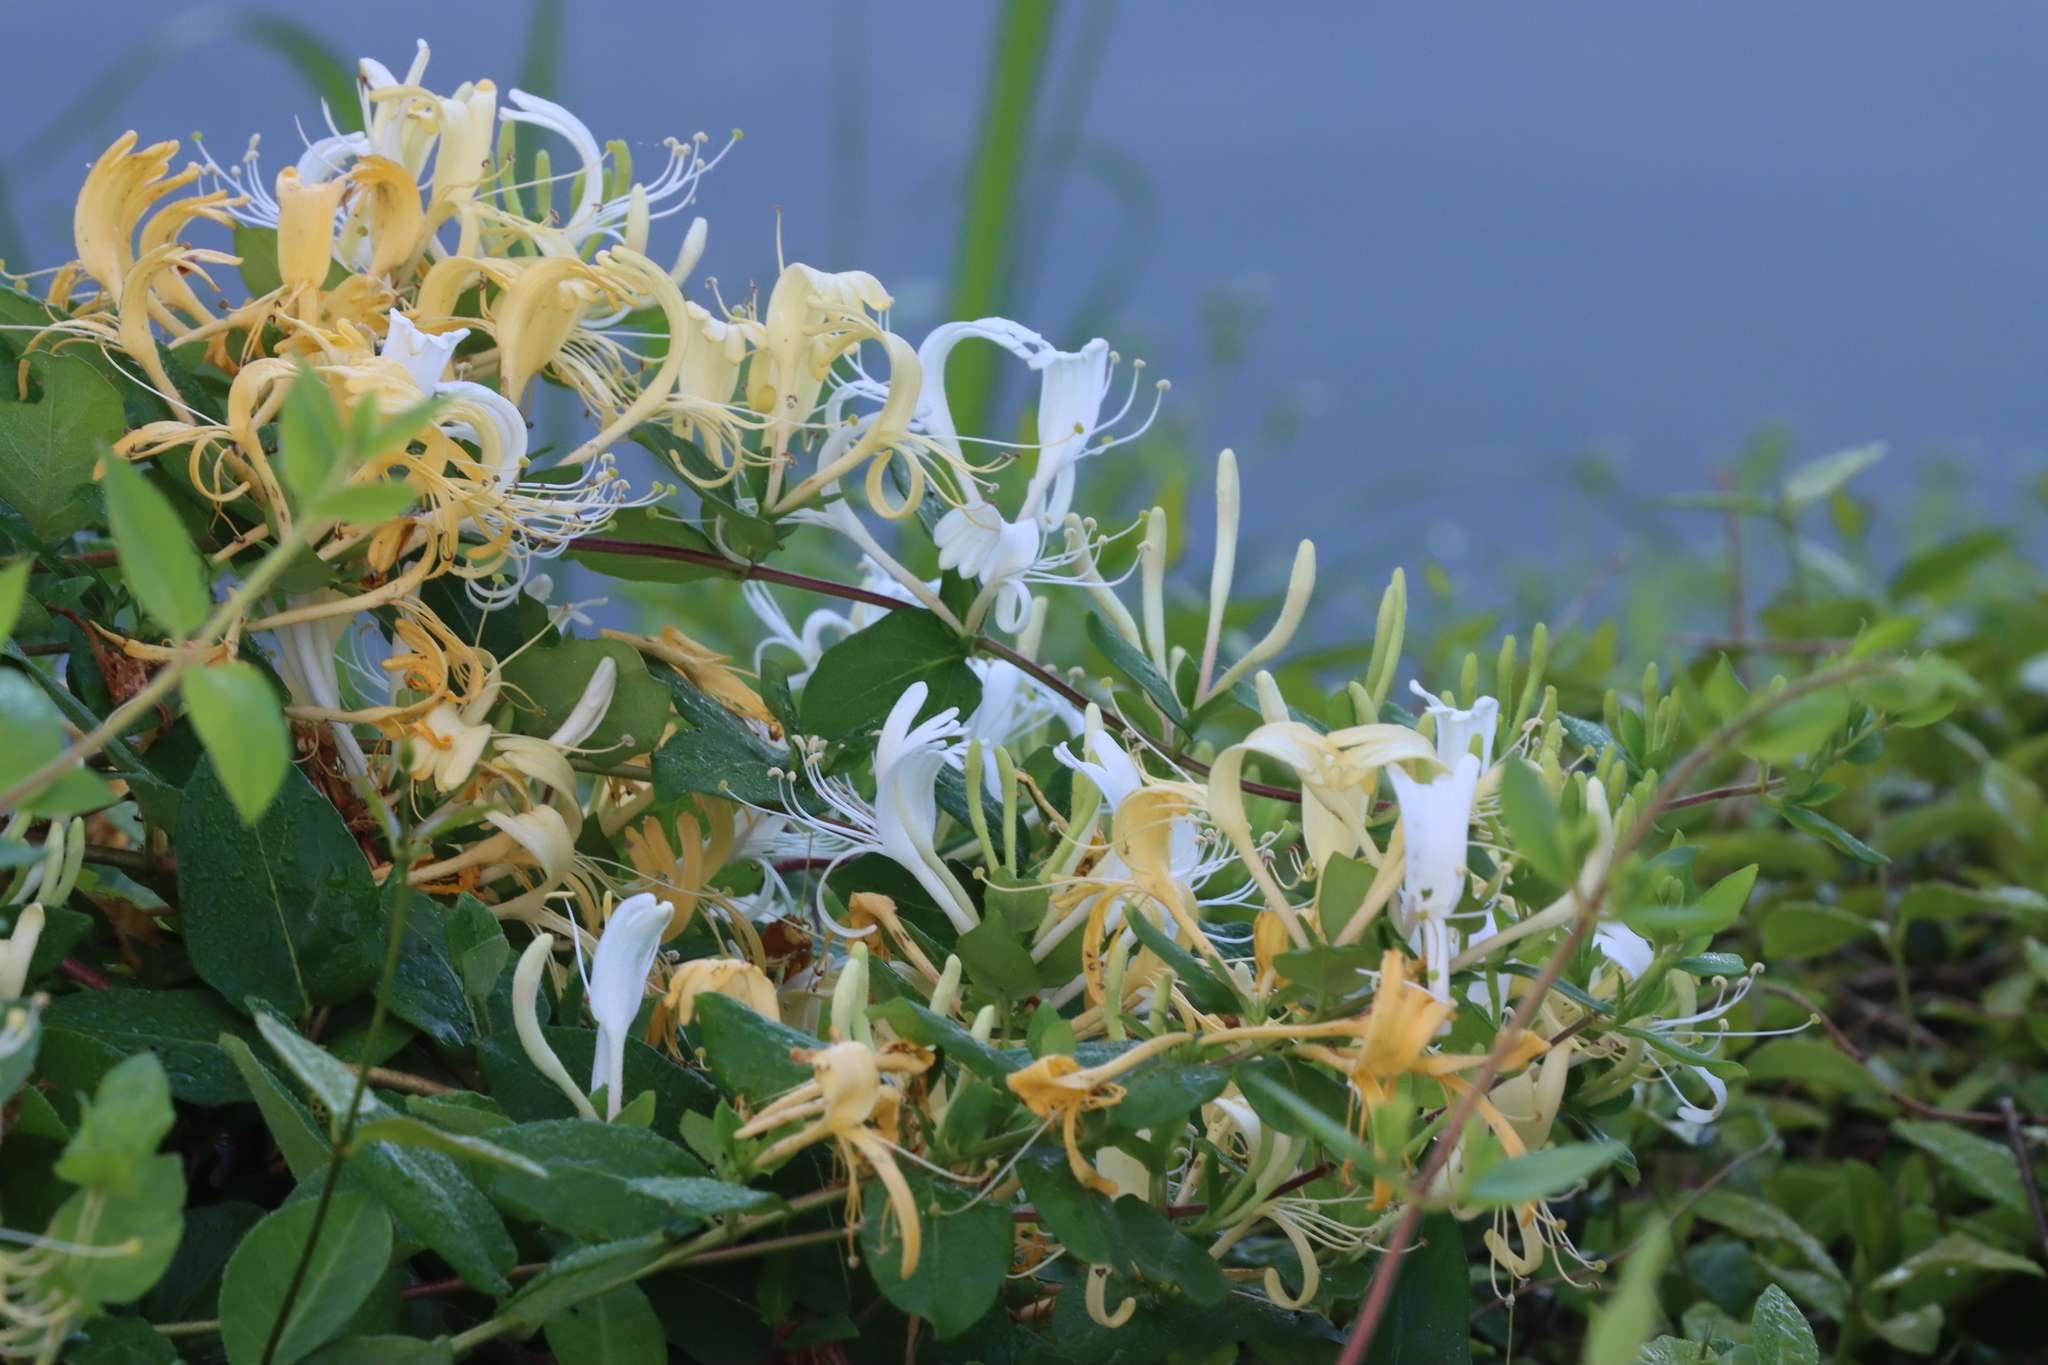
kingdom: Plantae
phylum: Tracheophyta
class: Magnoliopsida
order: Dipsacales
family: Caprifoliaceae
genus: Lonicera
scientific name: Lonicera japonica
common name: Japanese honeysuckle
